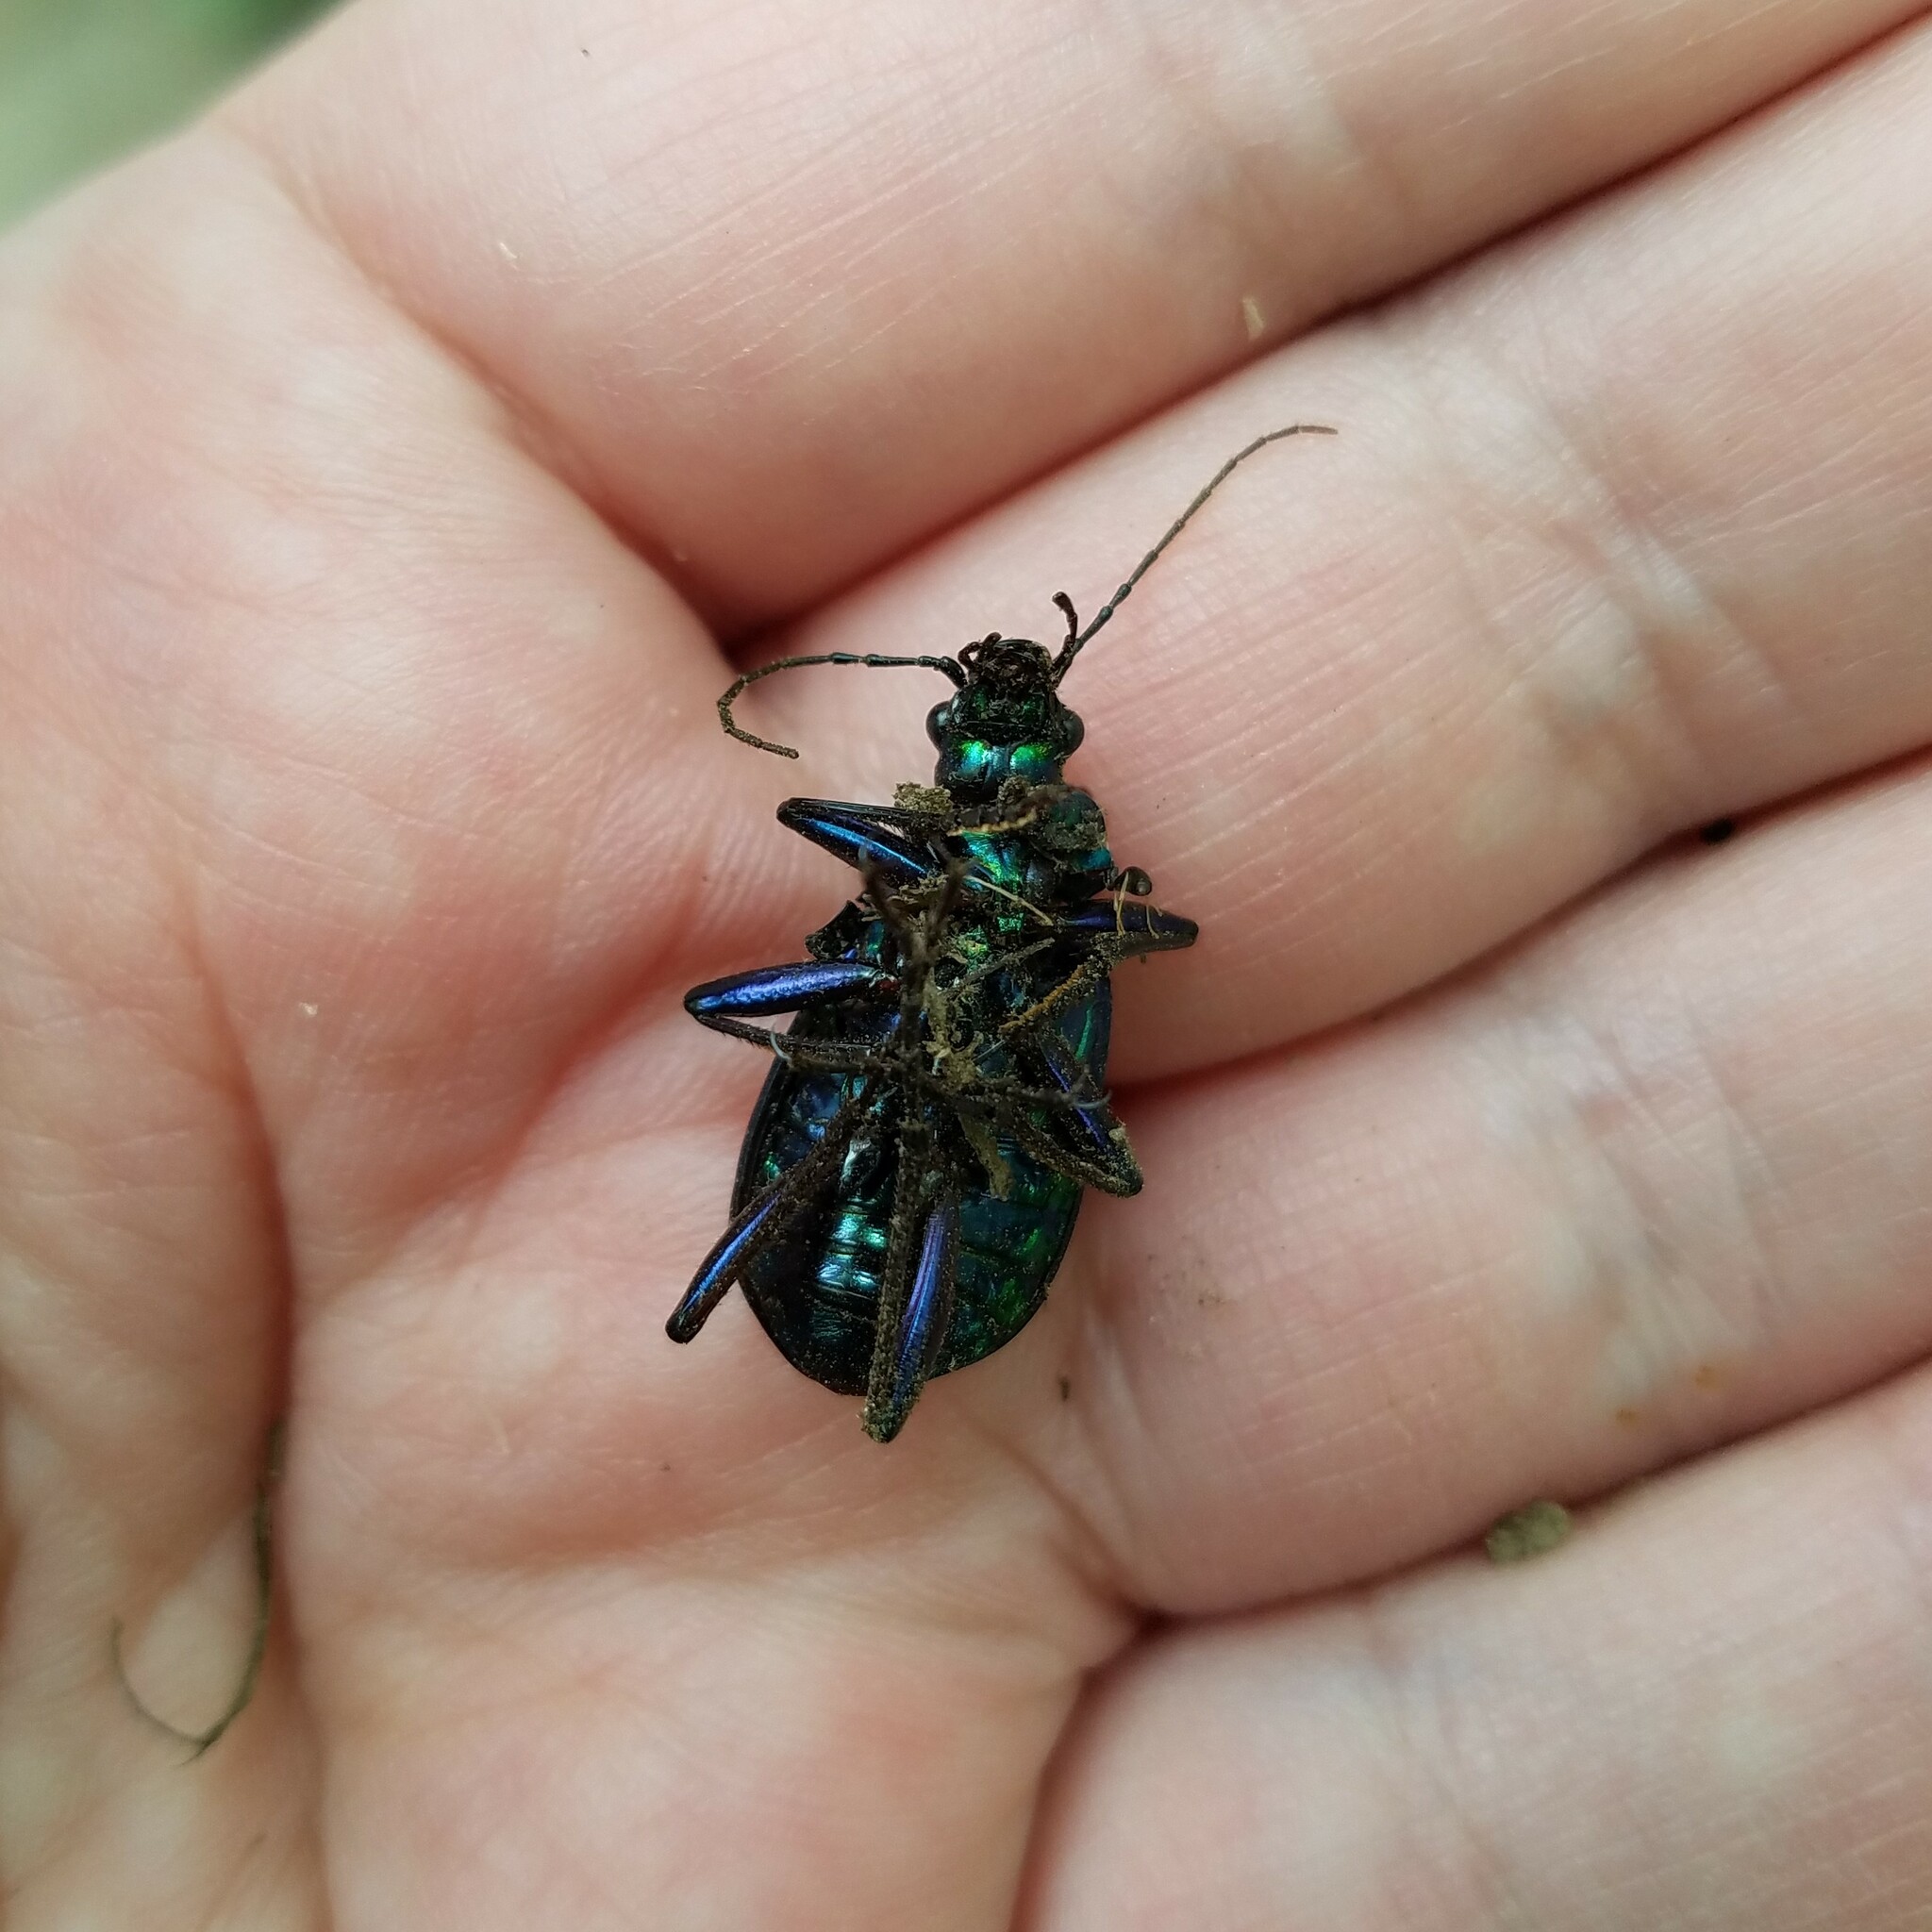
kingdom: Animalia
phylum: Arthropoda
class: Insecta
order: Coleoptera
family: Carabidae
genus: Calosoma
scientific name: Calosoma wilcoxi
